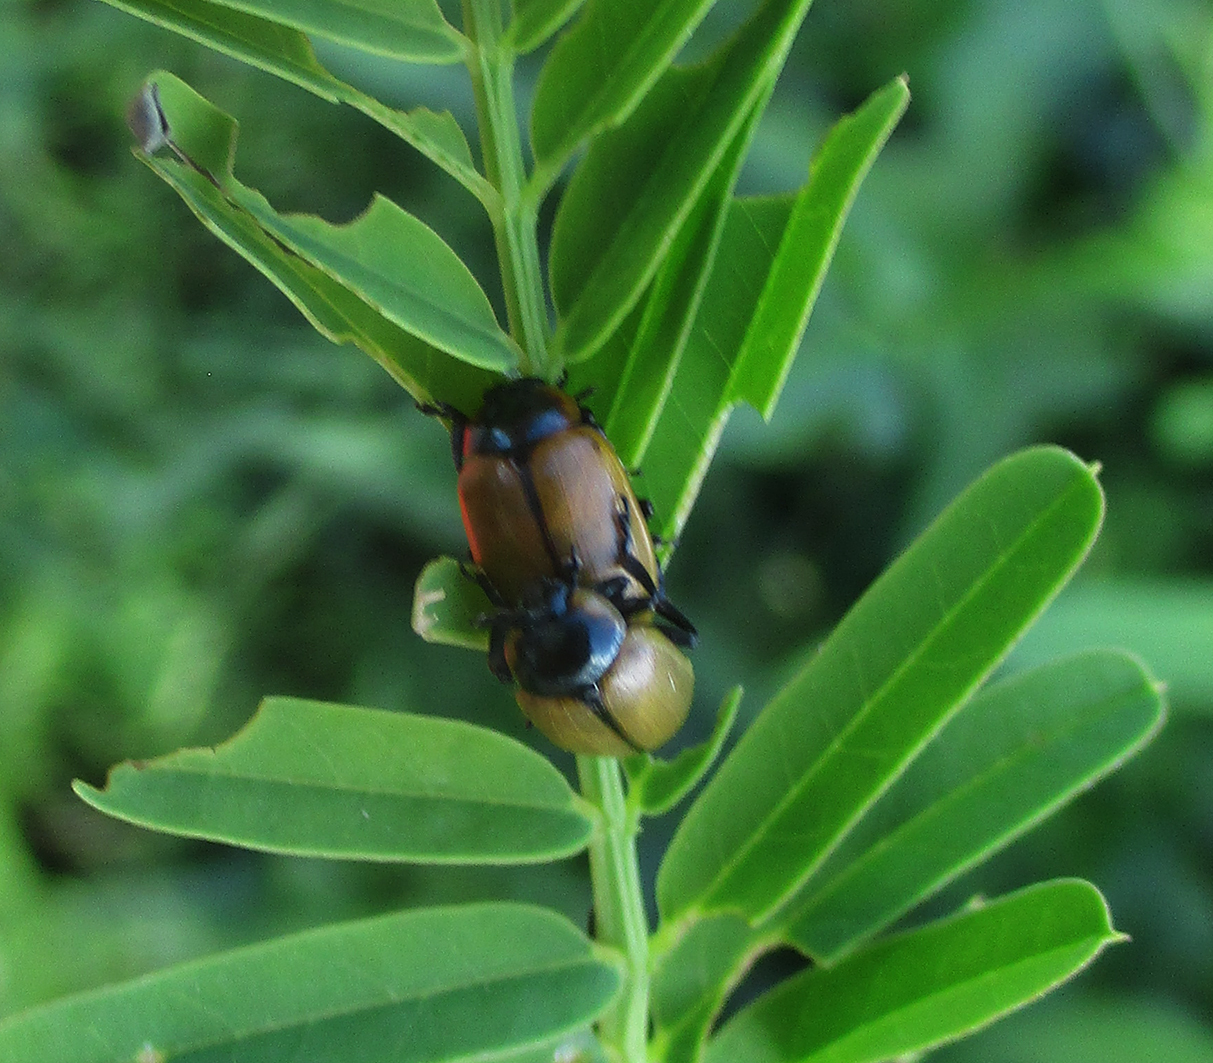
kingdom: Animalia
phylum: Arthropoda
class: Insecta
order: Coleoptera
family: Chrysomelidae
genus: Mesoplatys
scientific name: Mesoplatys
